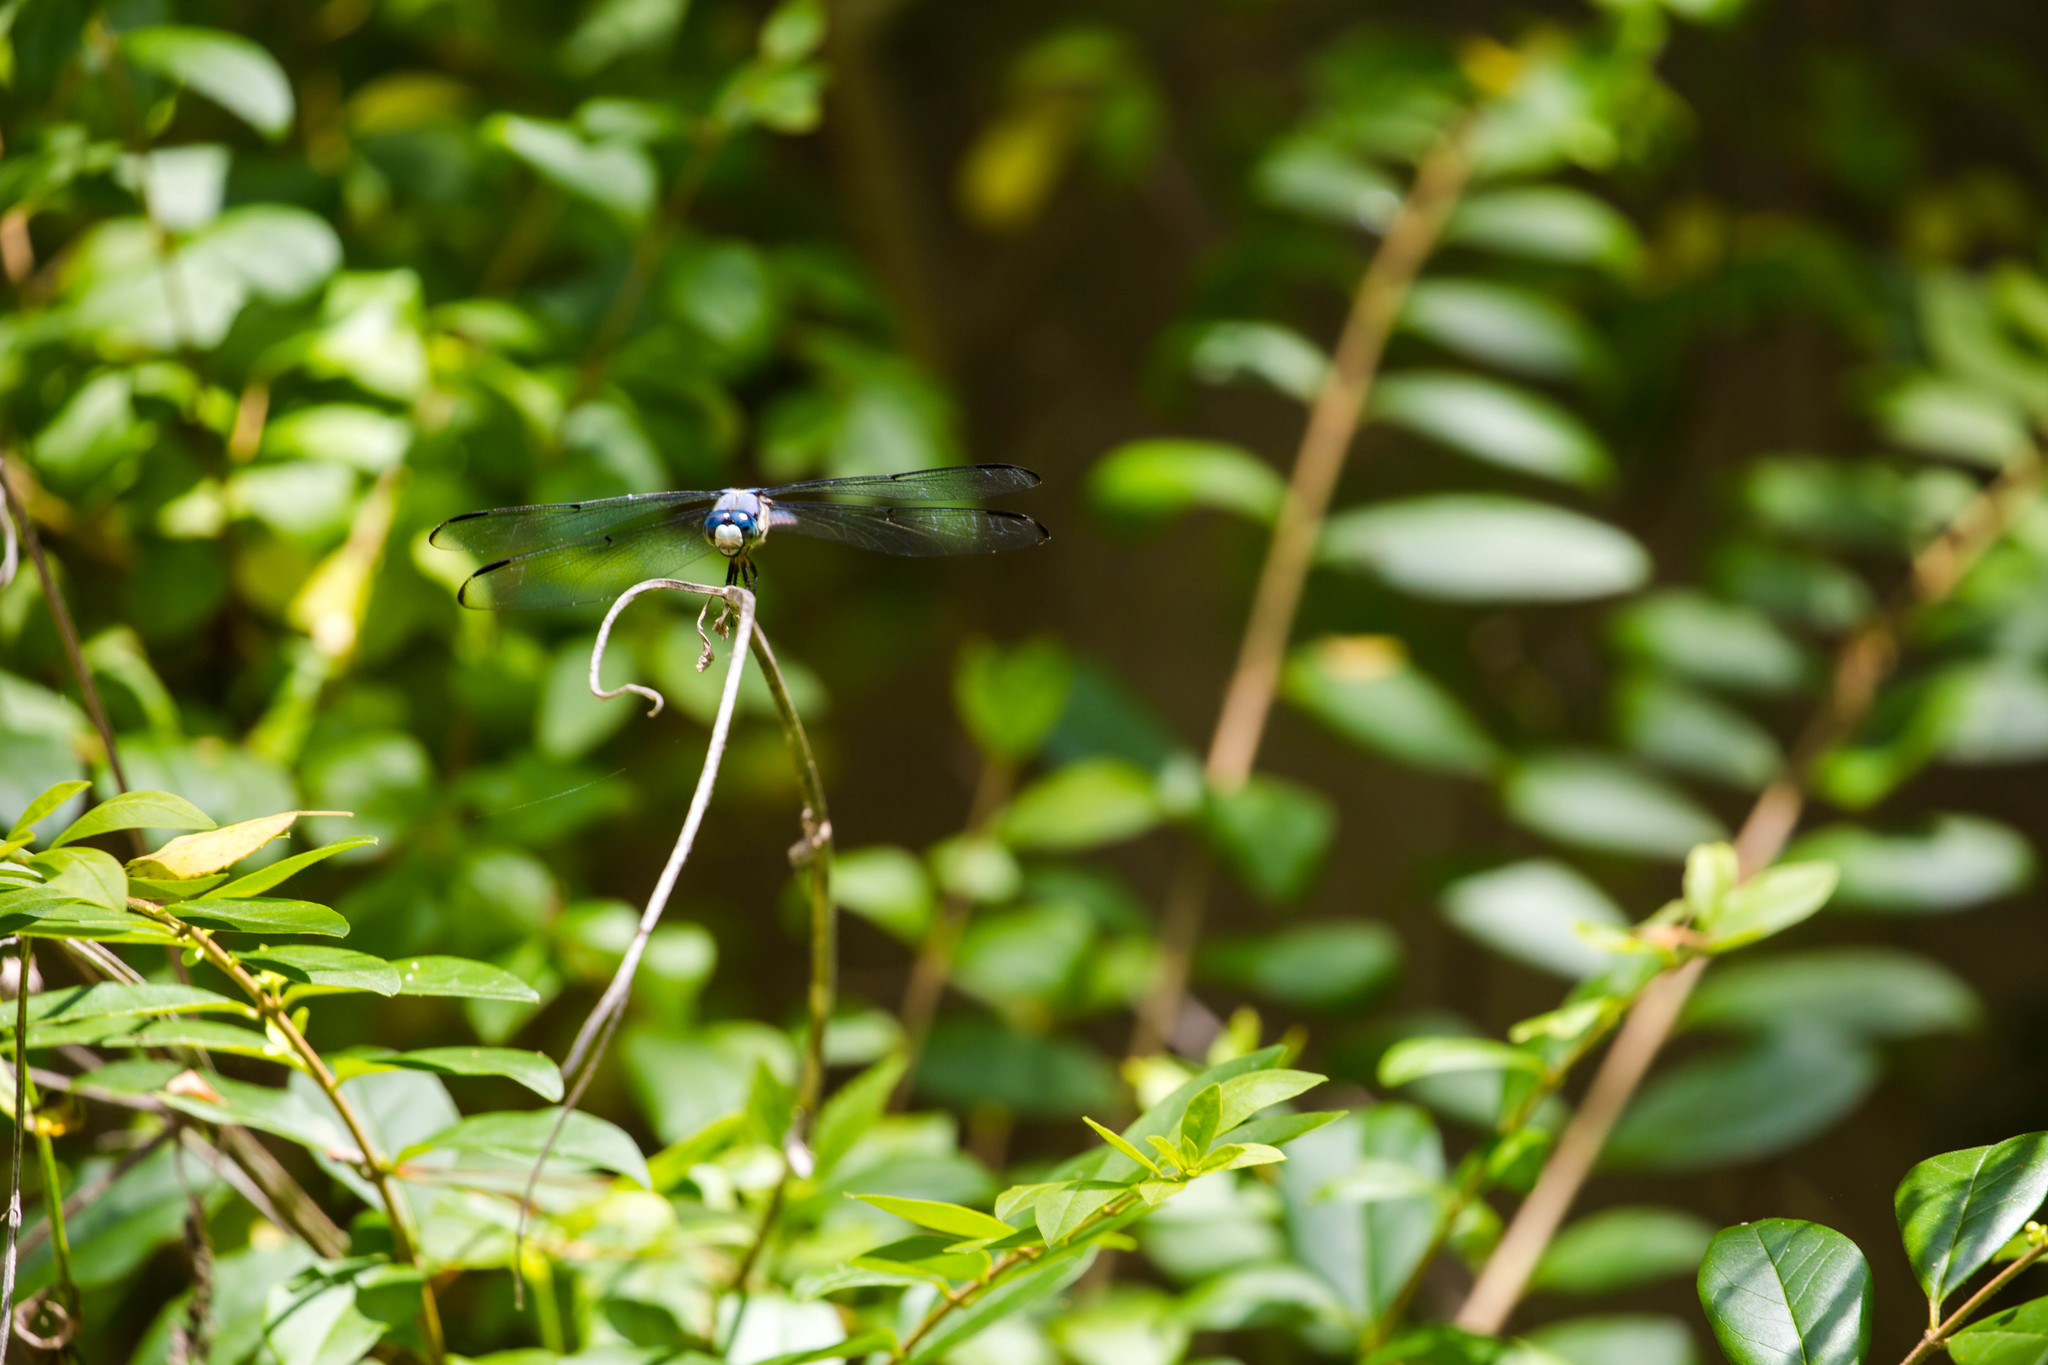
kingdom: Animalia
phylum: Arthropoda
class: Insecta
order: Odonata
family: Libellulidae
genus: Libellula
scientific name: Libellula vibrans
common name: Great blue skimmer
